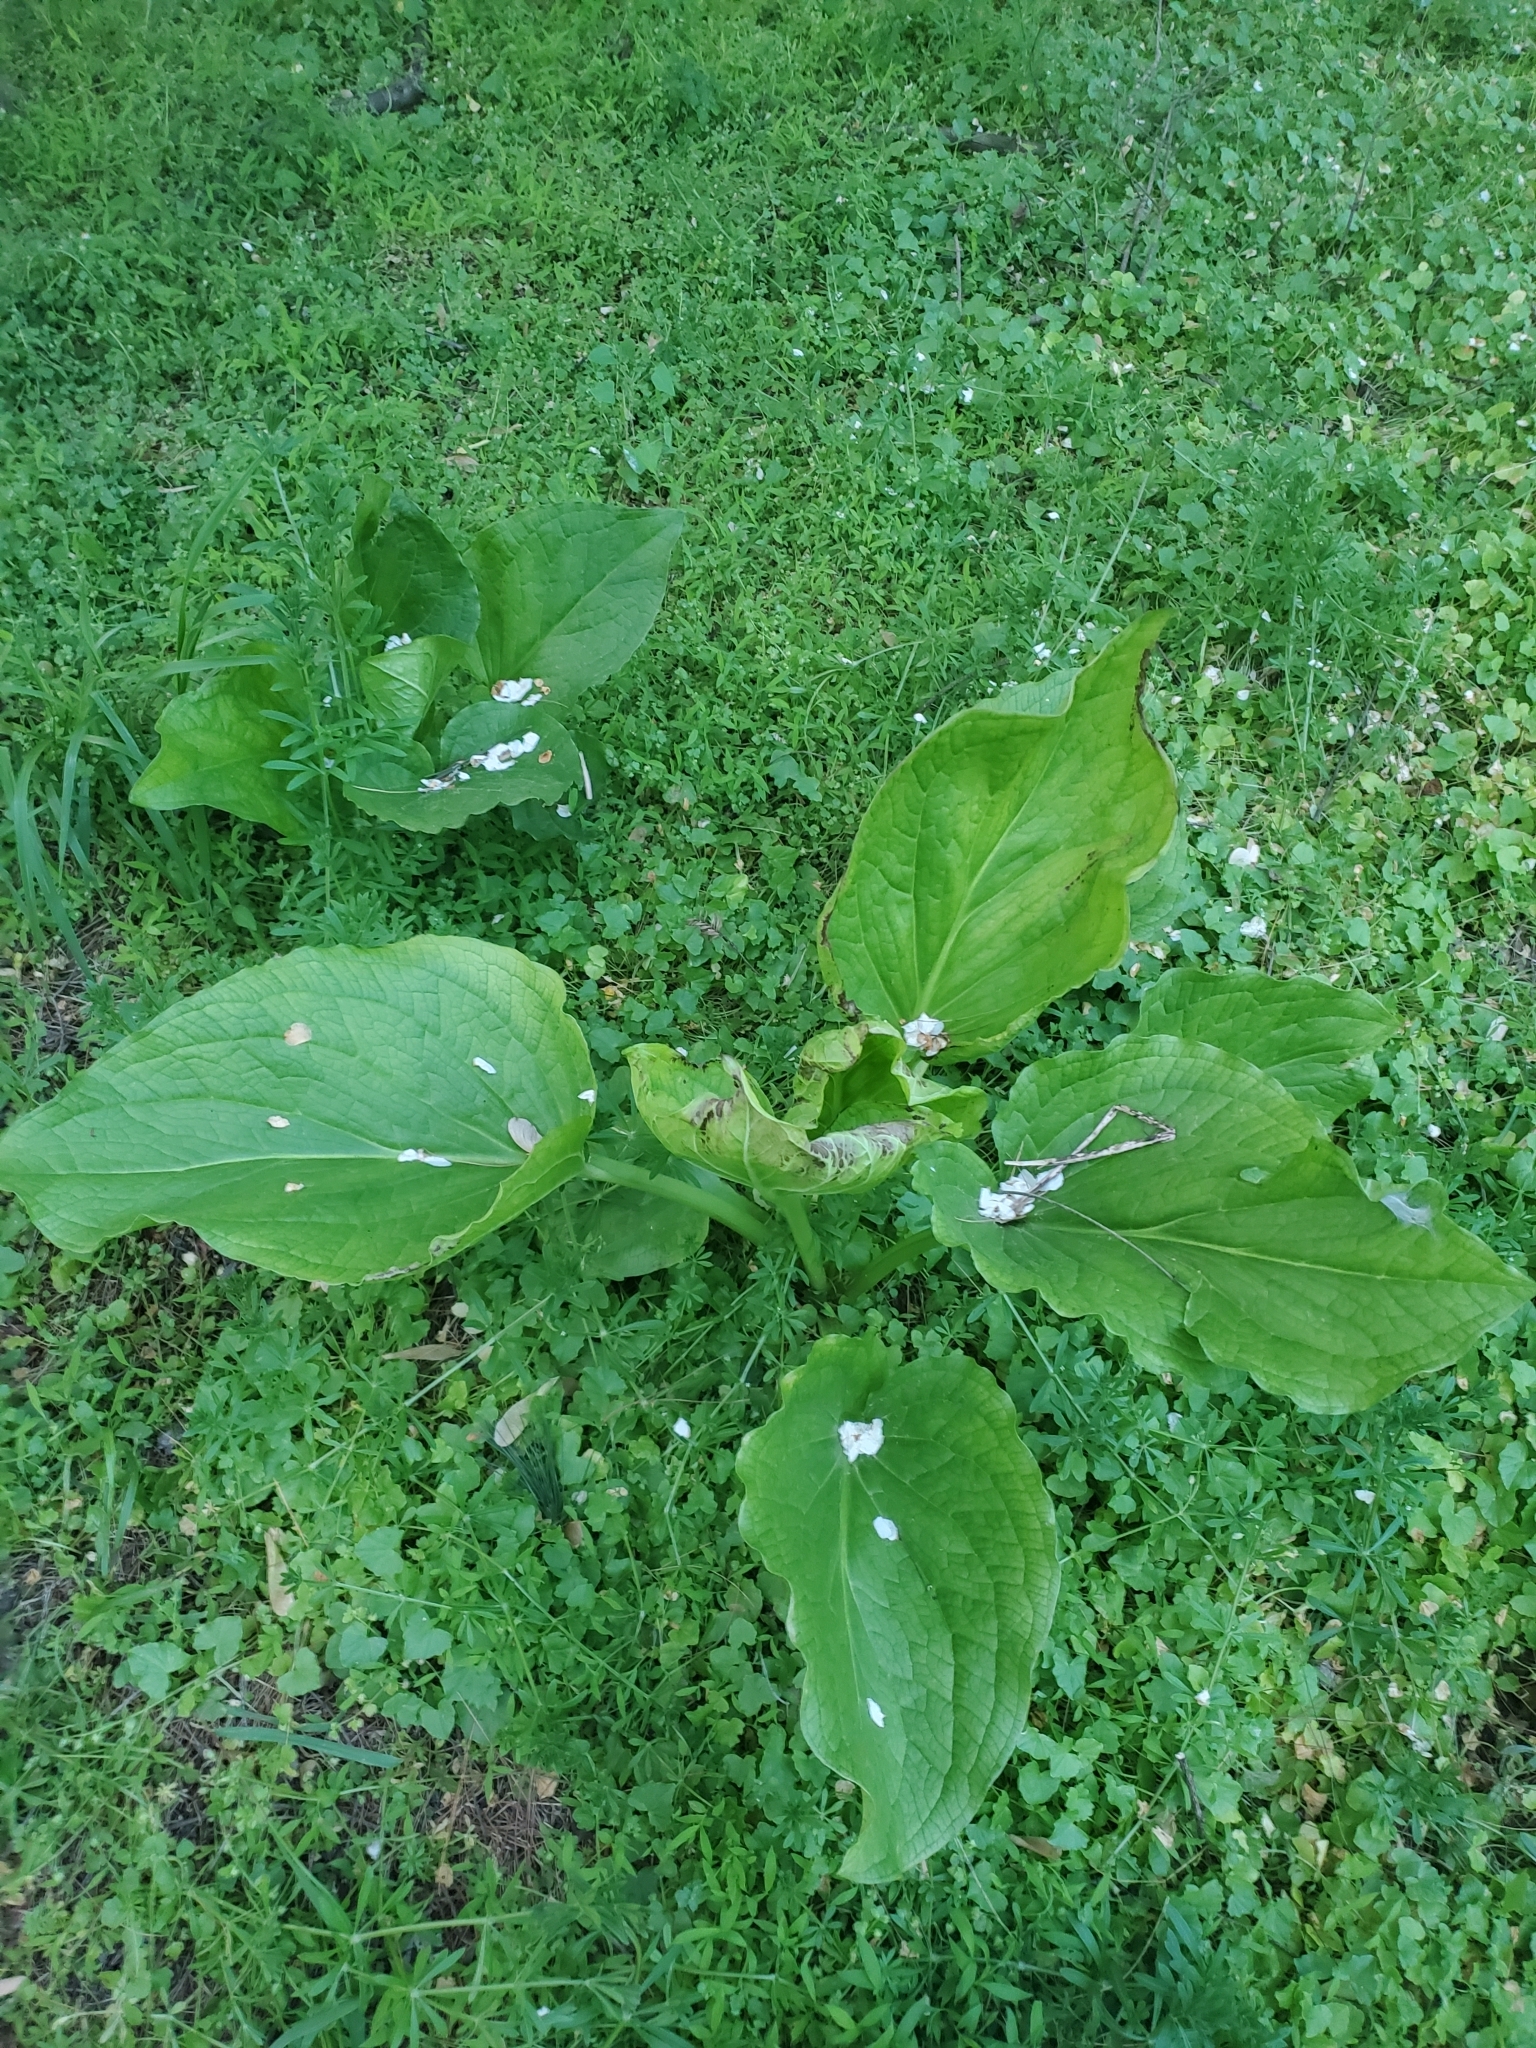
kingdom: Plantae
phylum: Tracheophyta
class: Liliopsida
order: Alismatales
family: Araceae
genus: Symplocarpus
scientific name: Symplocarpus foetidus
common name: Eastern skunk cabbage
